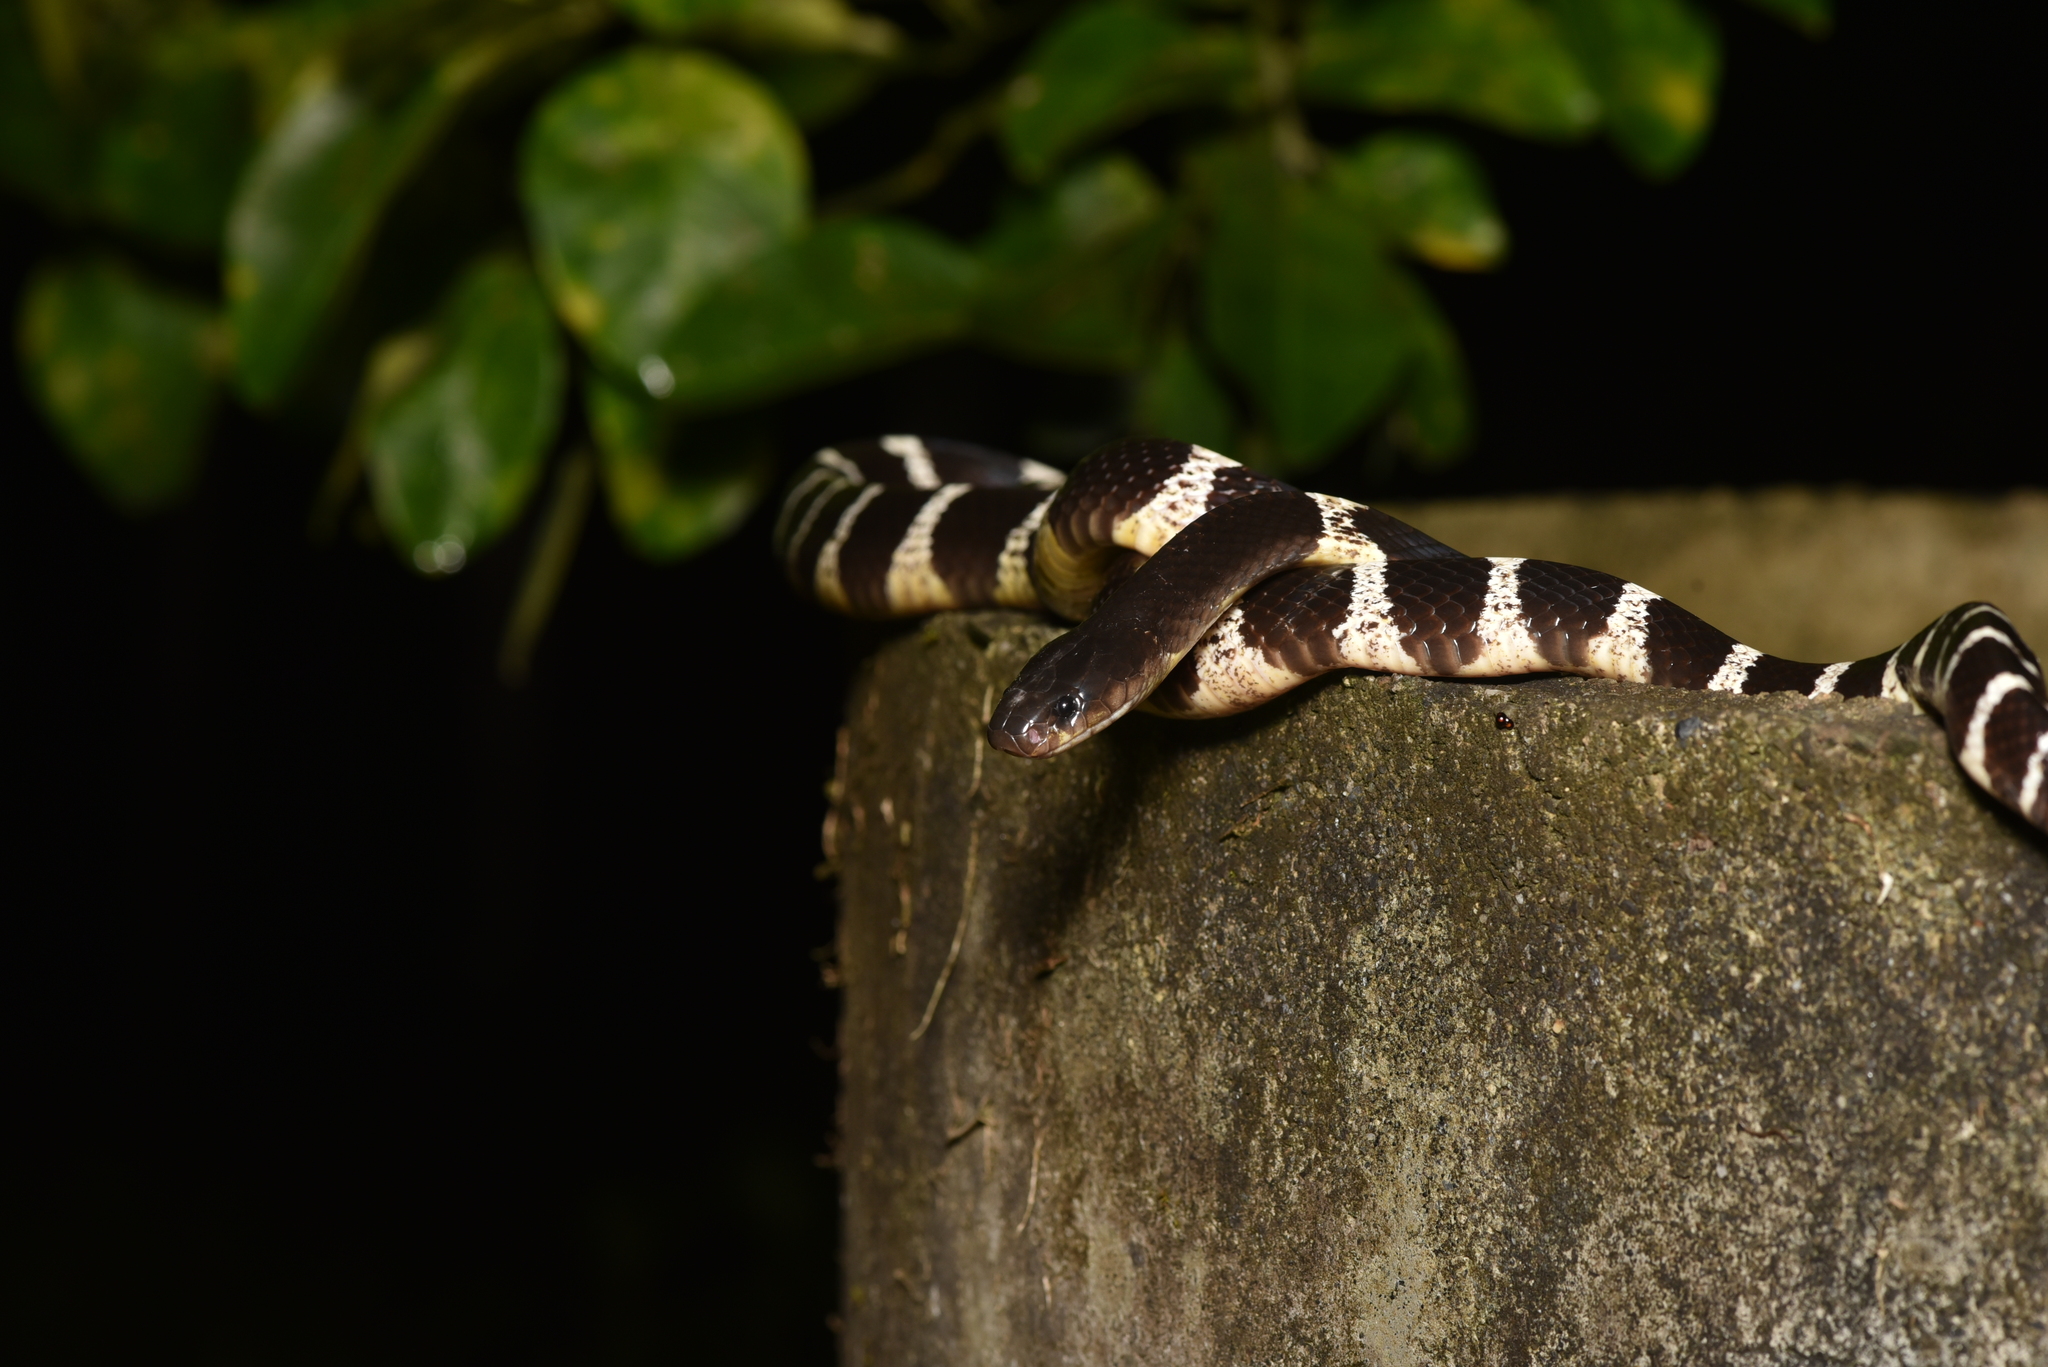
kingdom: Animalia
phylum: Chordata
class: Squamata
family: Elapidae
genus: Bungarus
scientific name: Bungarus multicinctus
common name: Many-banded krait
